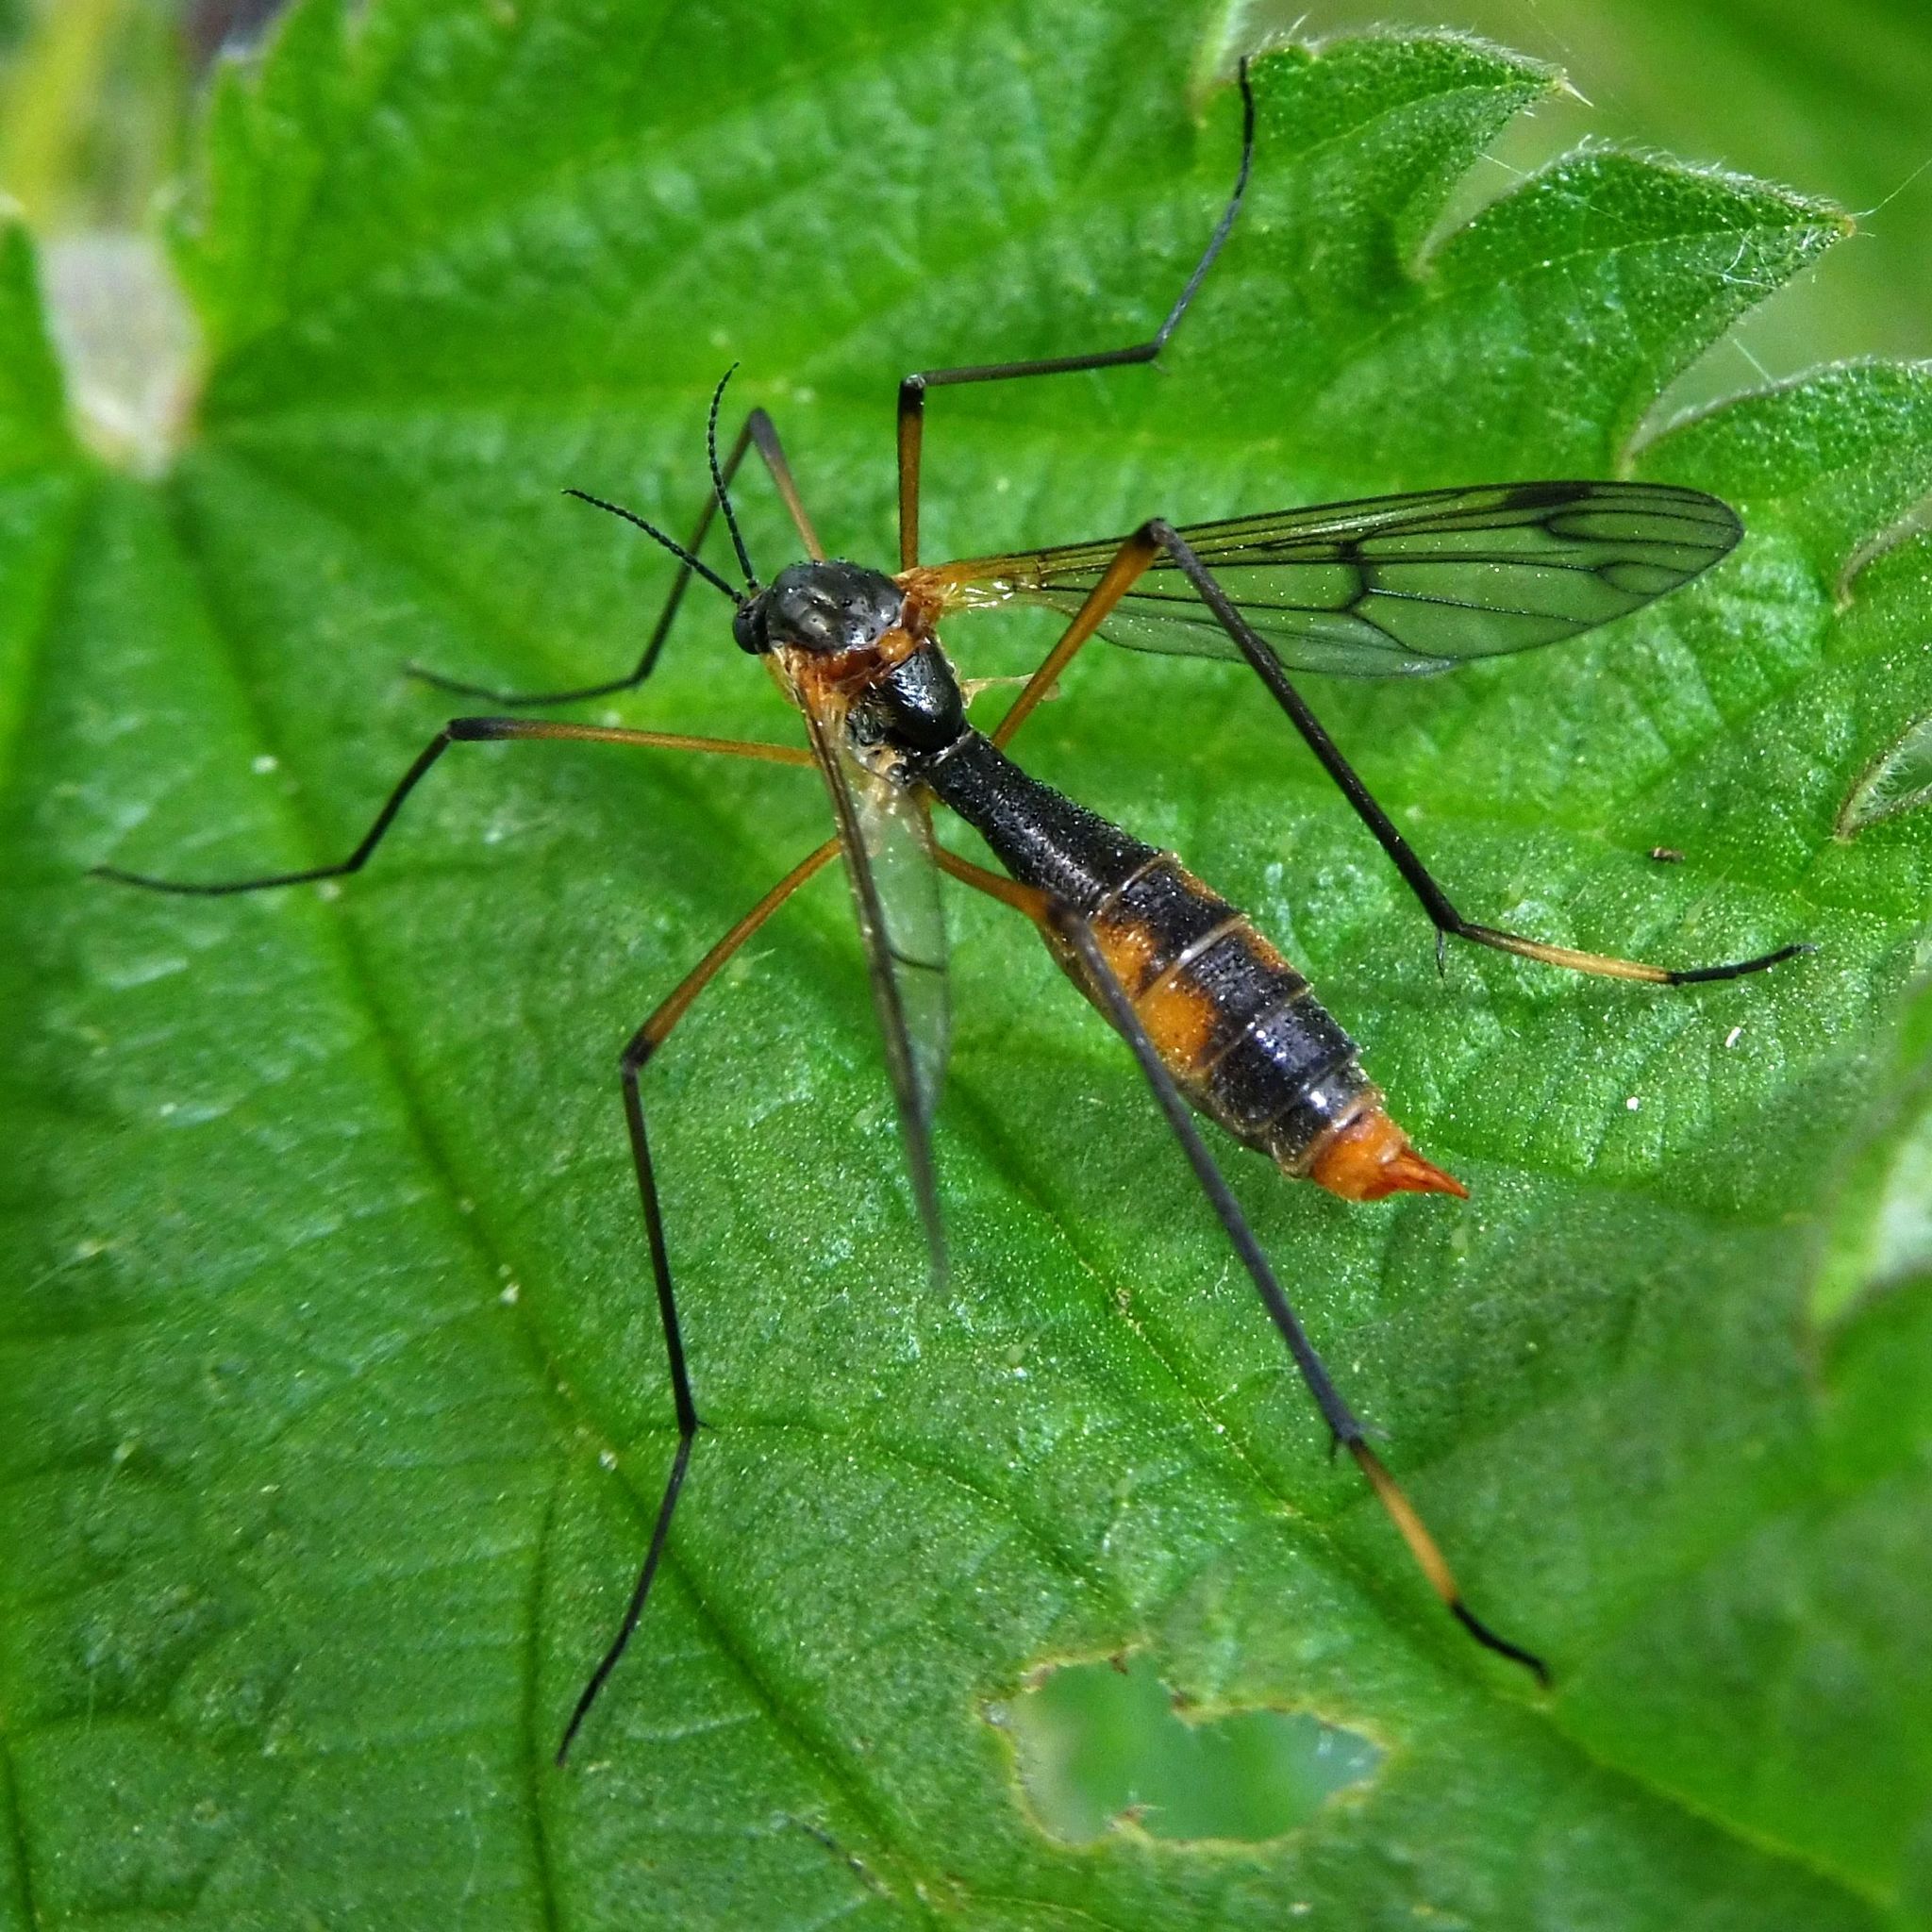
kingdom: Animalia
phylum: Arthropoda
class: Insecta
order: Diptera
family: Ptychopteridae
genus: Ptychoptera
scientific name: Ptychoptera albimanus
